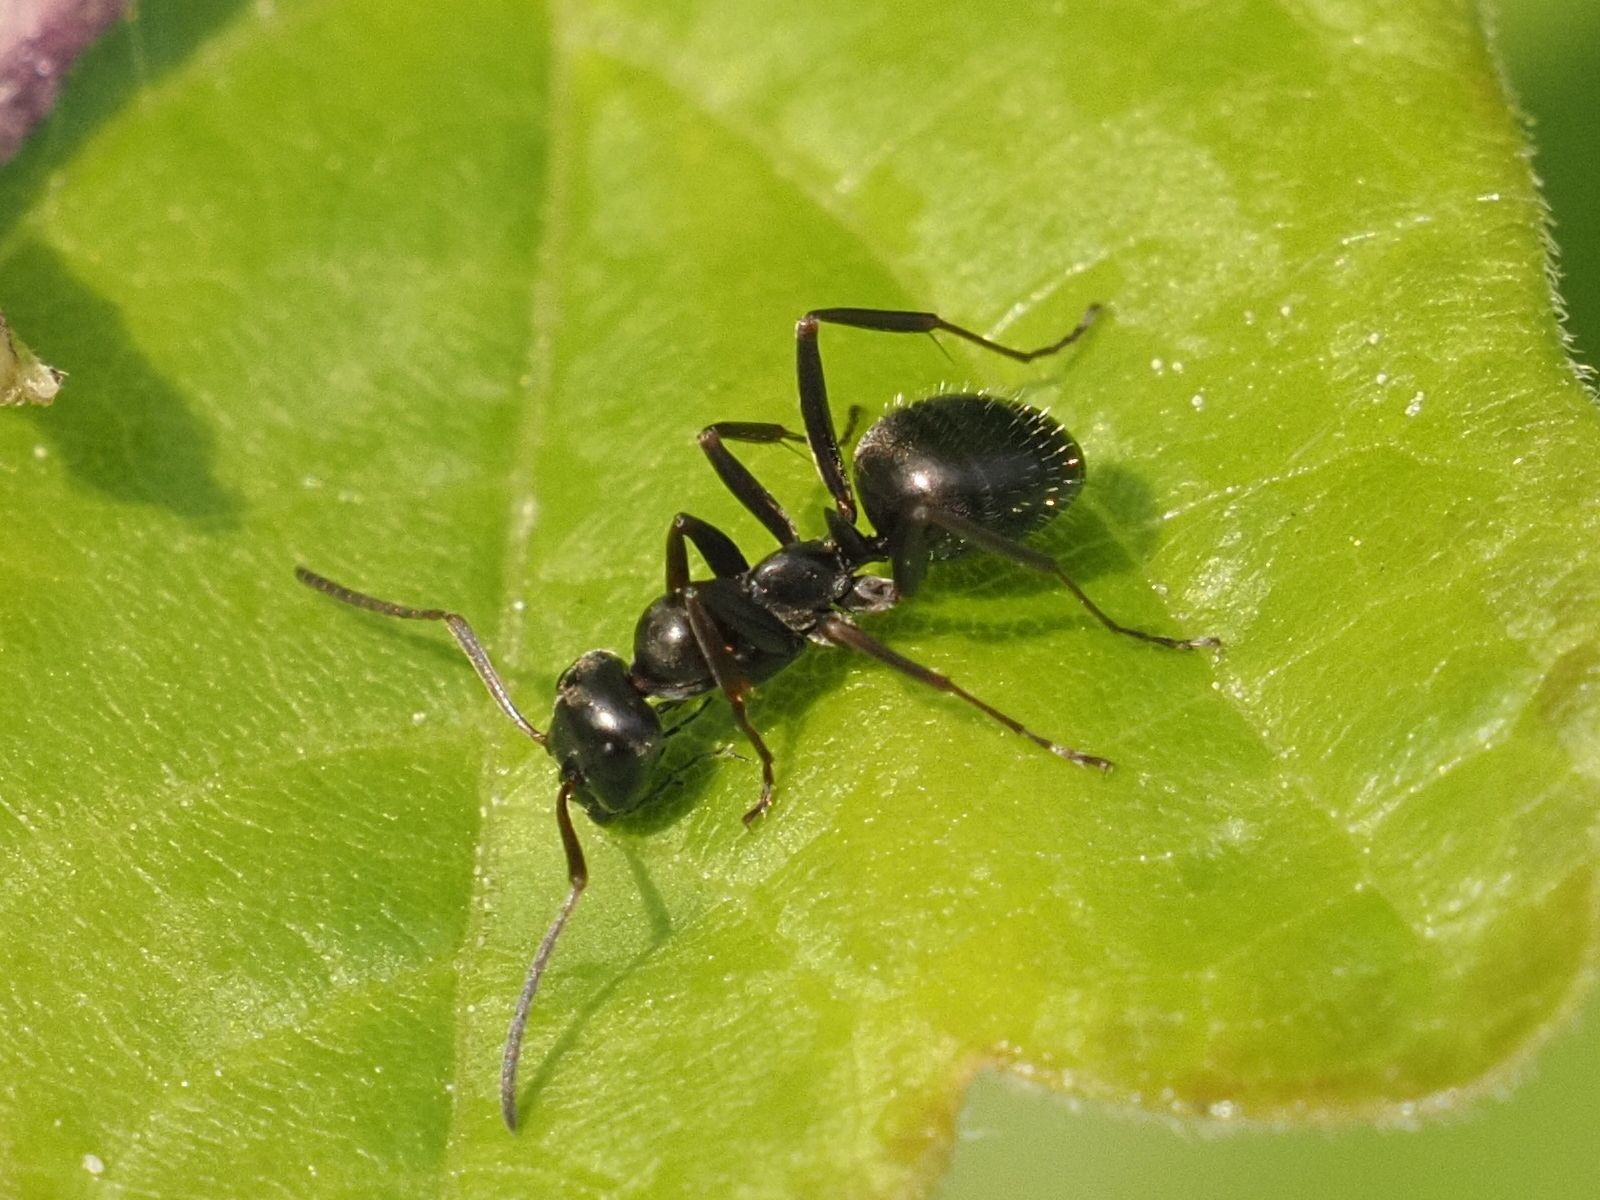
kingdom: Animalia
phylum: Arthropoda
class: Insecta
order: Hymenoptera
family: Formicidae
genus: Formica
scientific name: Formica gagates
